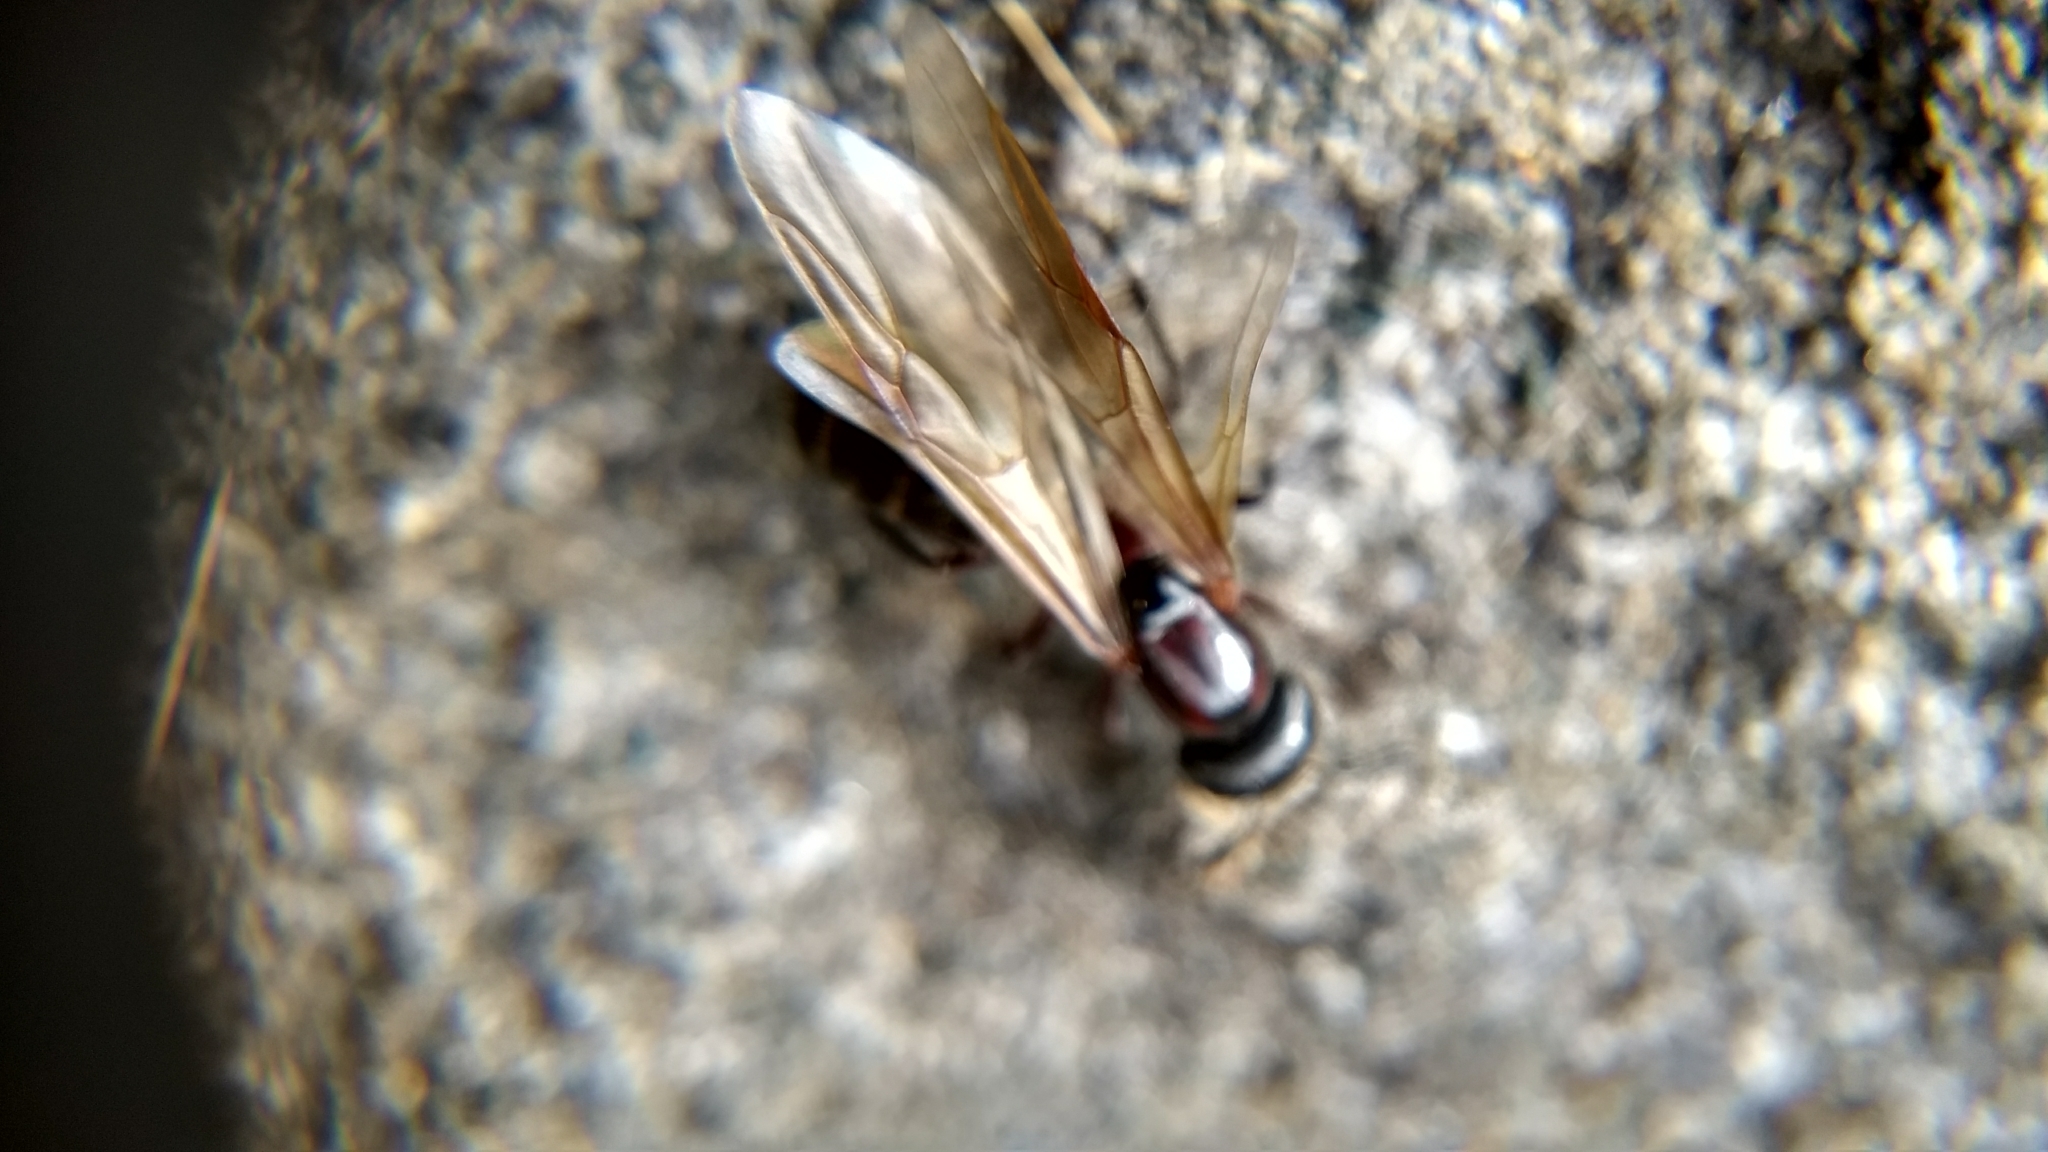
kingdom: Animalia
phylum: Arthropoda
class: Insecta
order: Hymenoptera
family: Formicidae
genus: Camponotus
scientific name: Camponotus novaeboracensis
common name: New york carpenter ant
